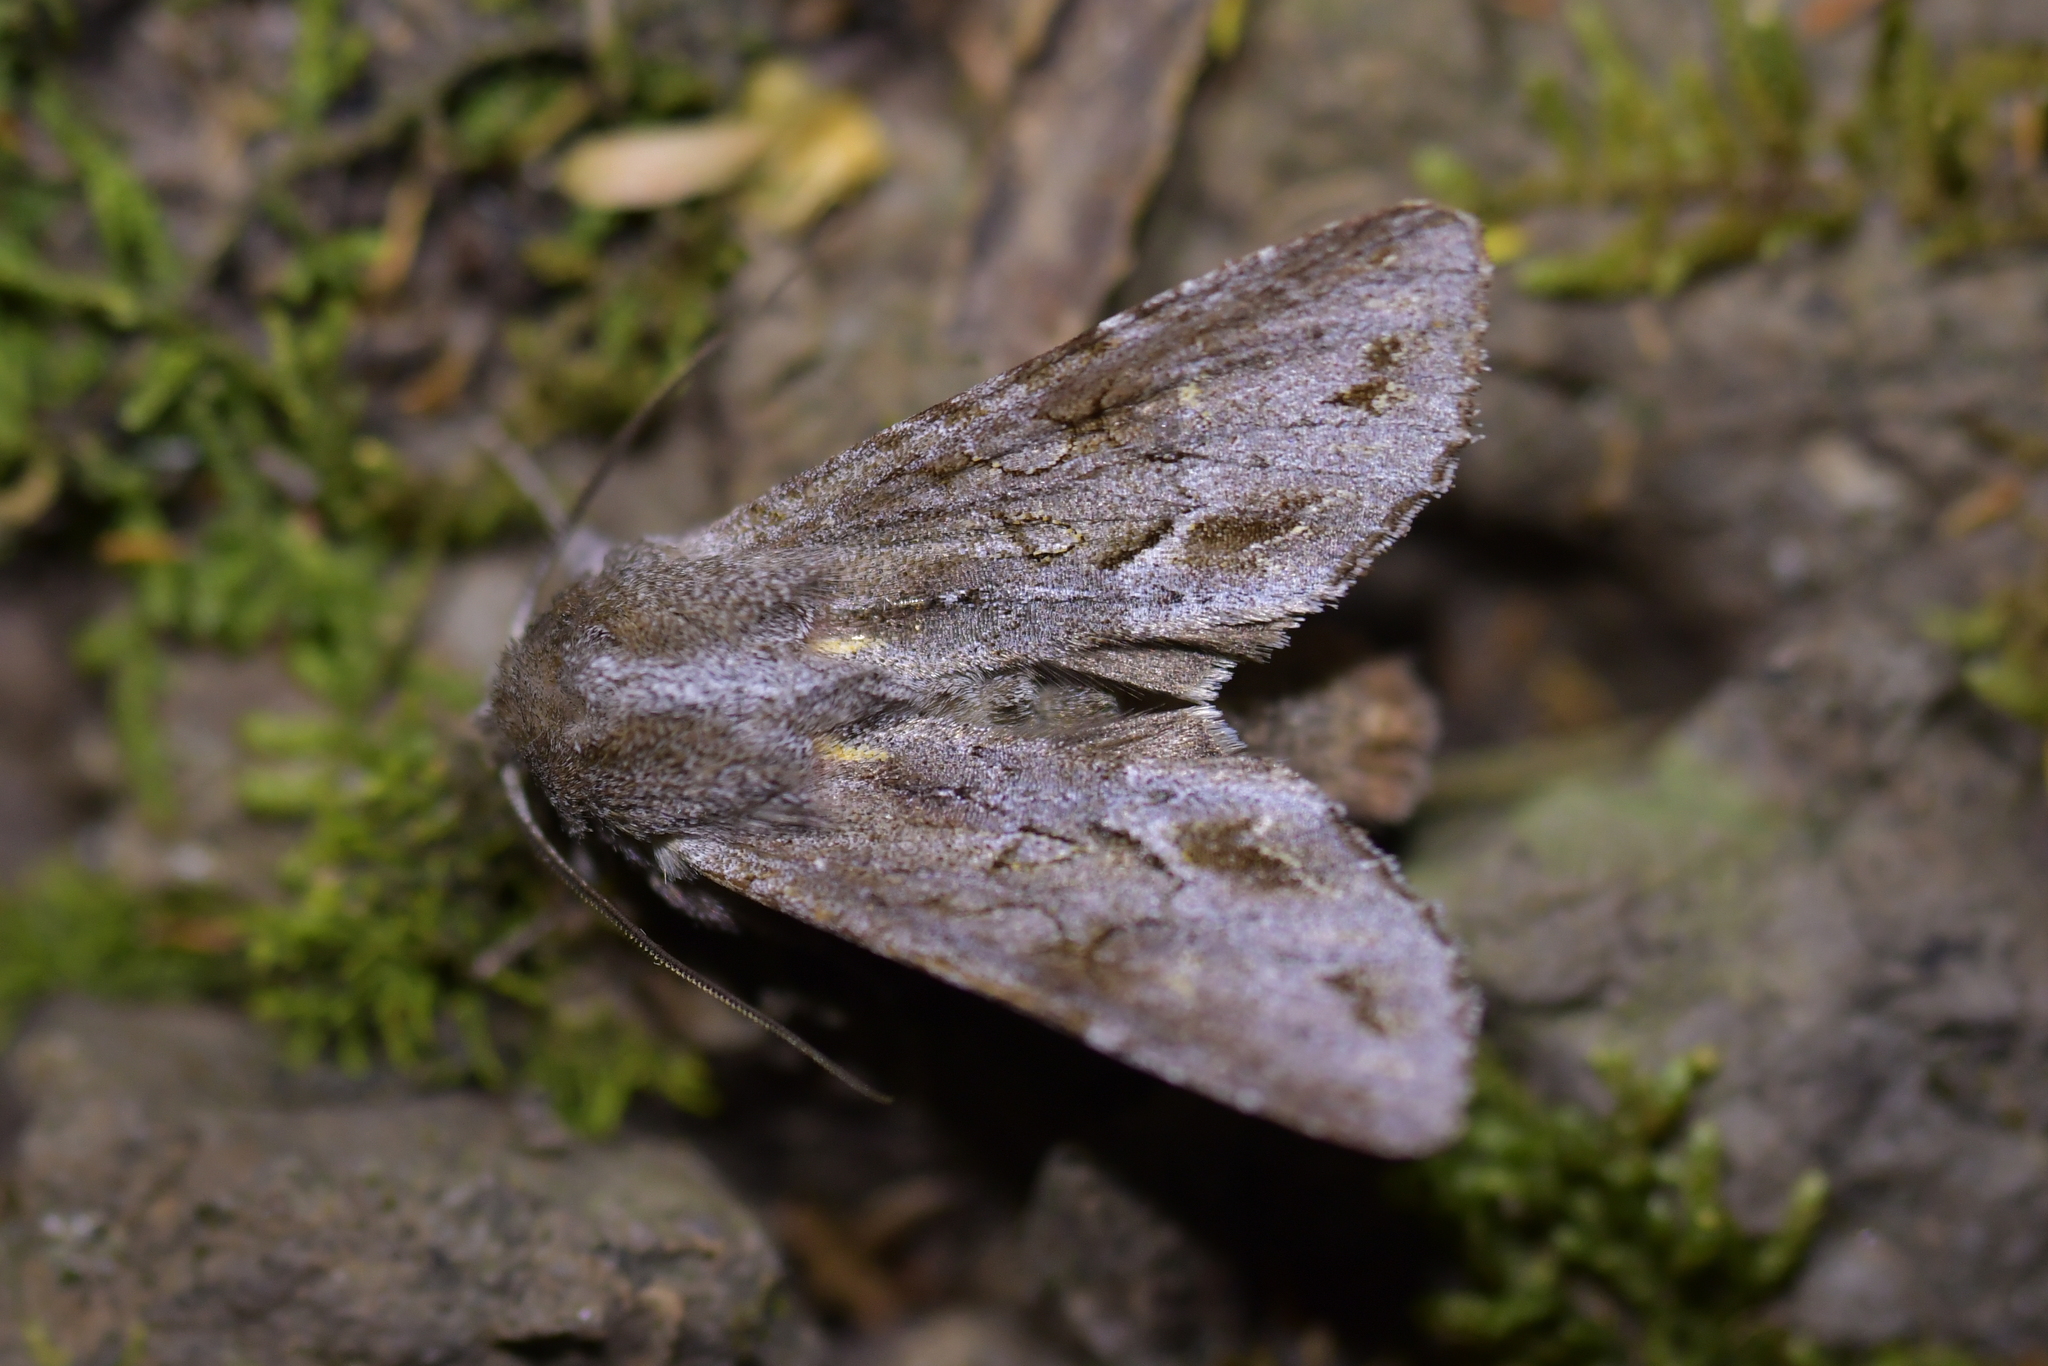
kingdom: Animalia
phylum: Arthropoda
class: Insecta
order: Lepidoptera
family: Noctuidae
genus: Ichneutica
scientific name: Ichneutica
